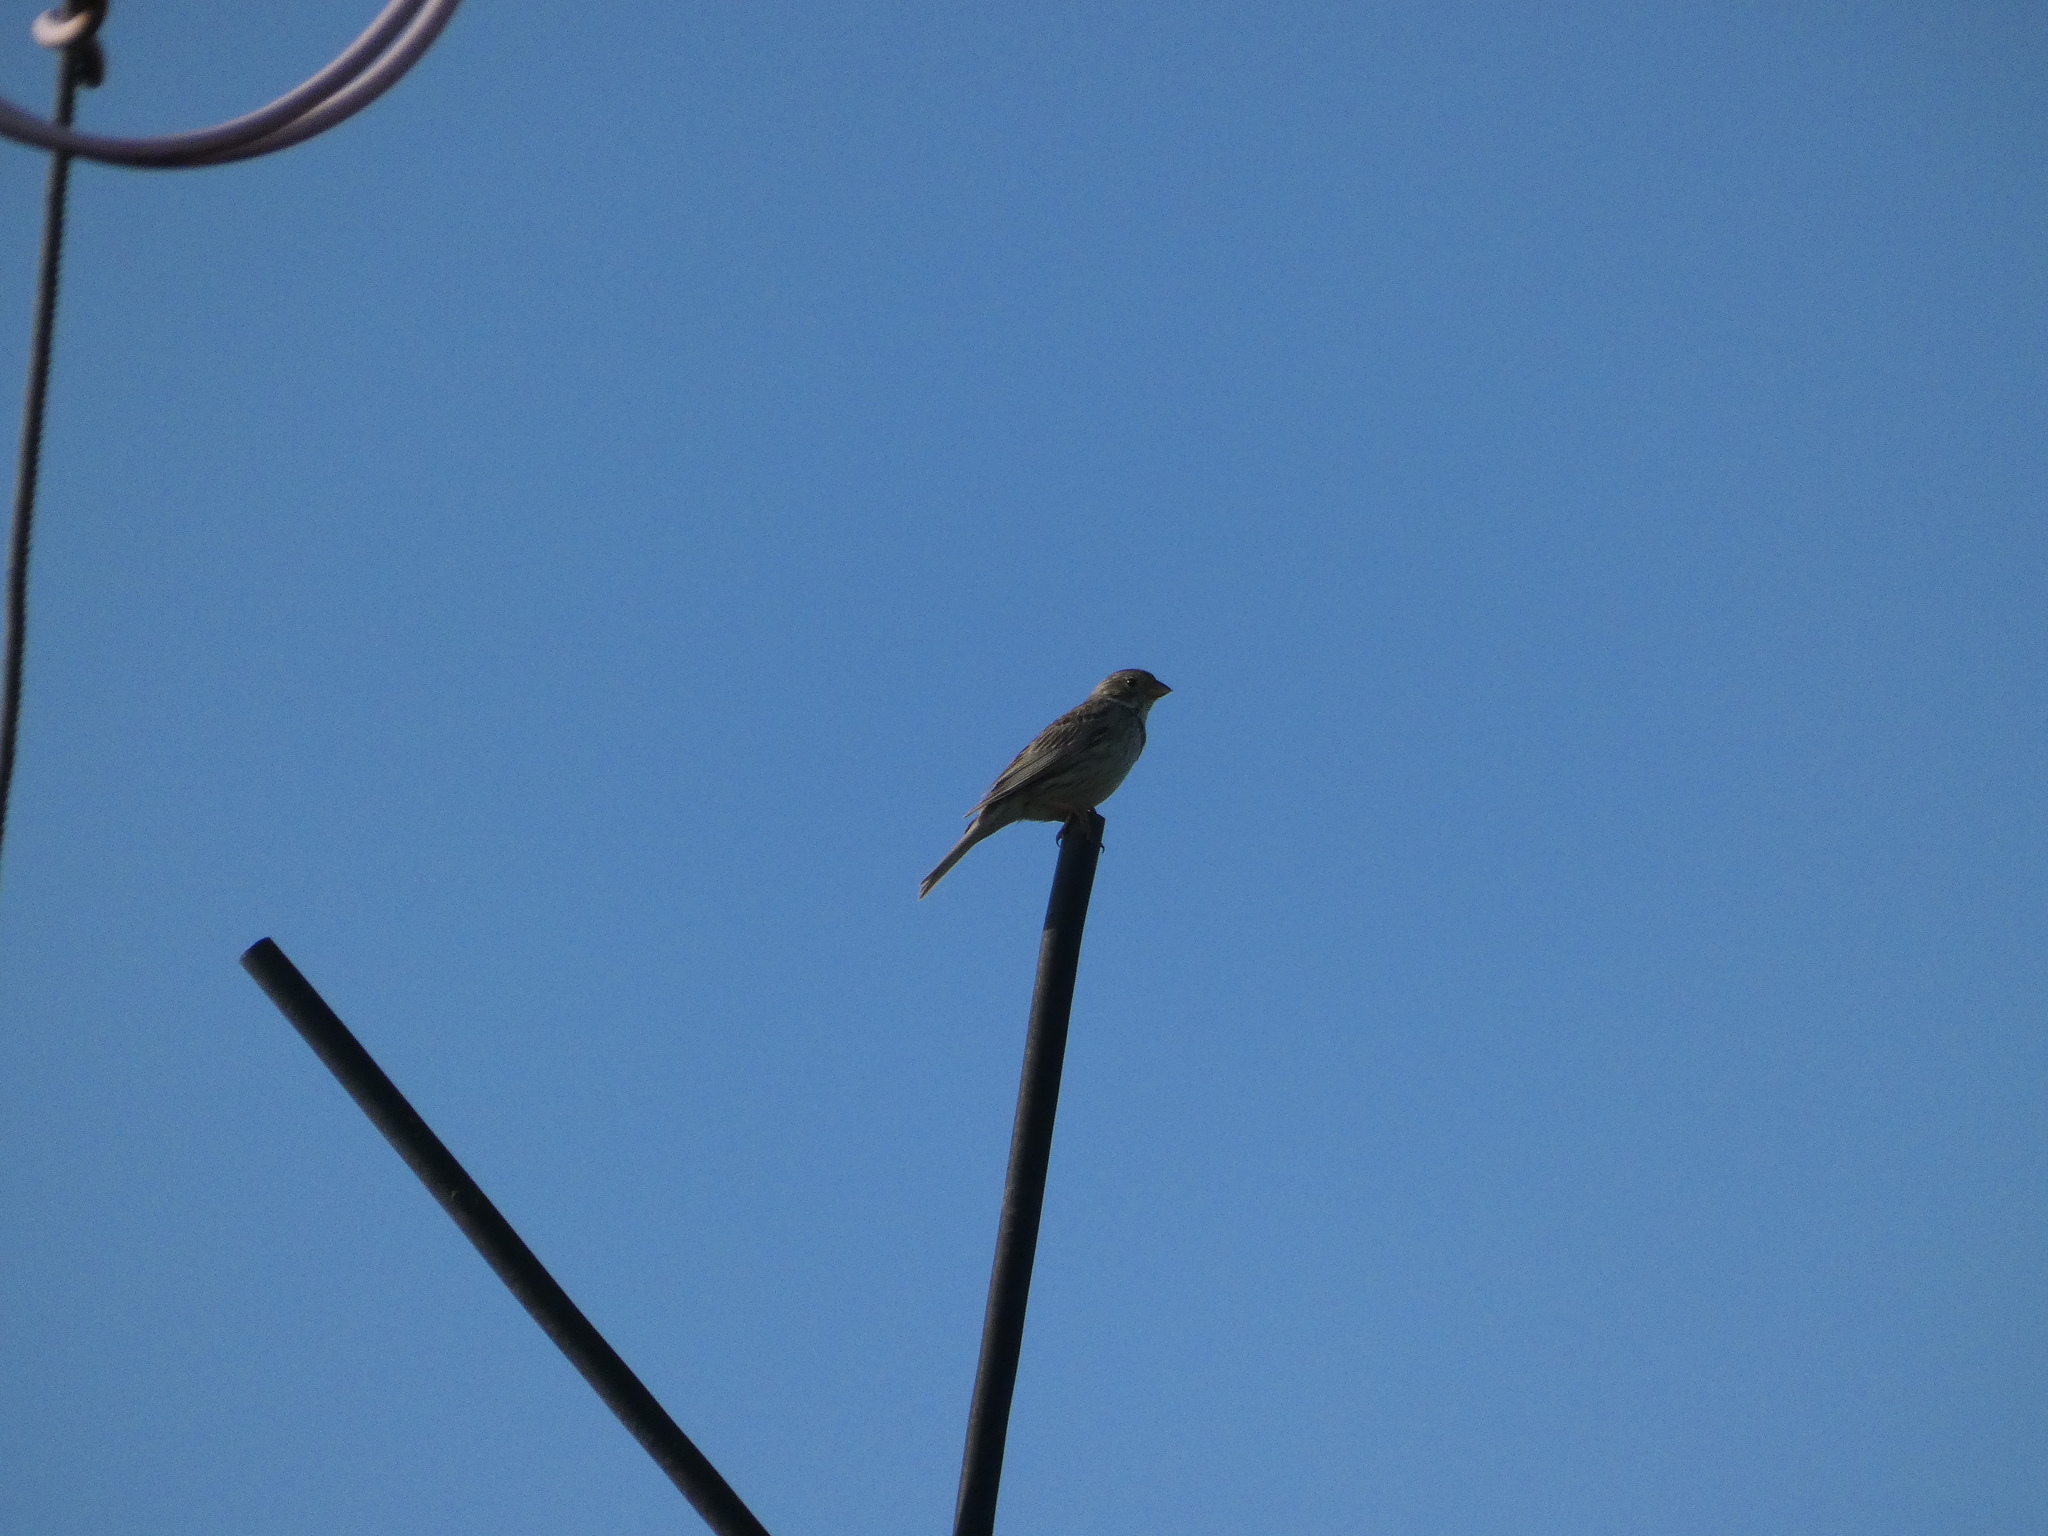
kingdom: Animalia
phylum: Chordata
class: Aves
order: Passeriformes
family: Emberizidae
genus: Emberiza
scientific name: Emberiza calandra
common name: Corn bunting
